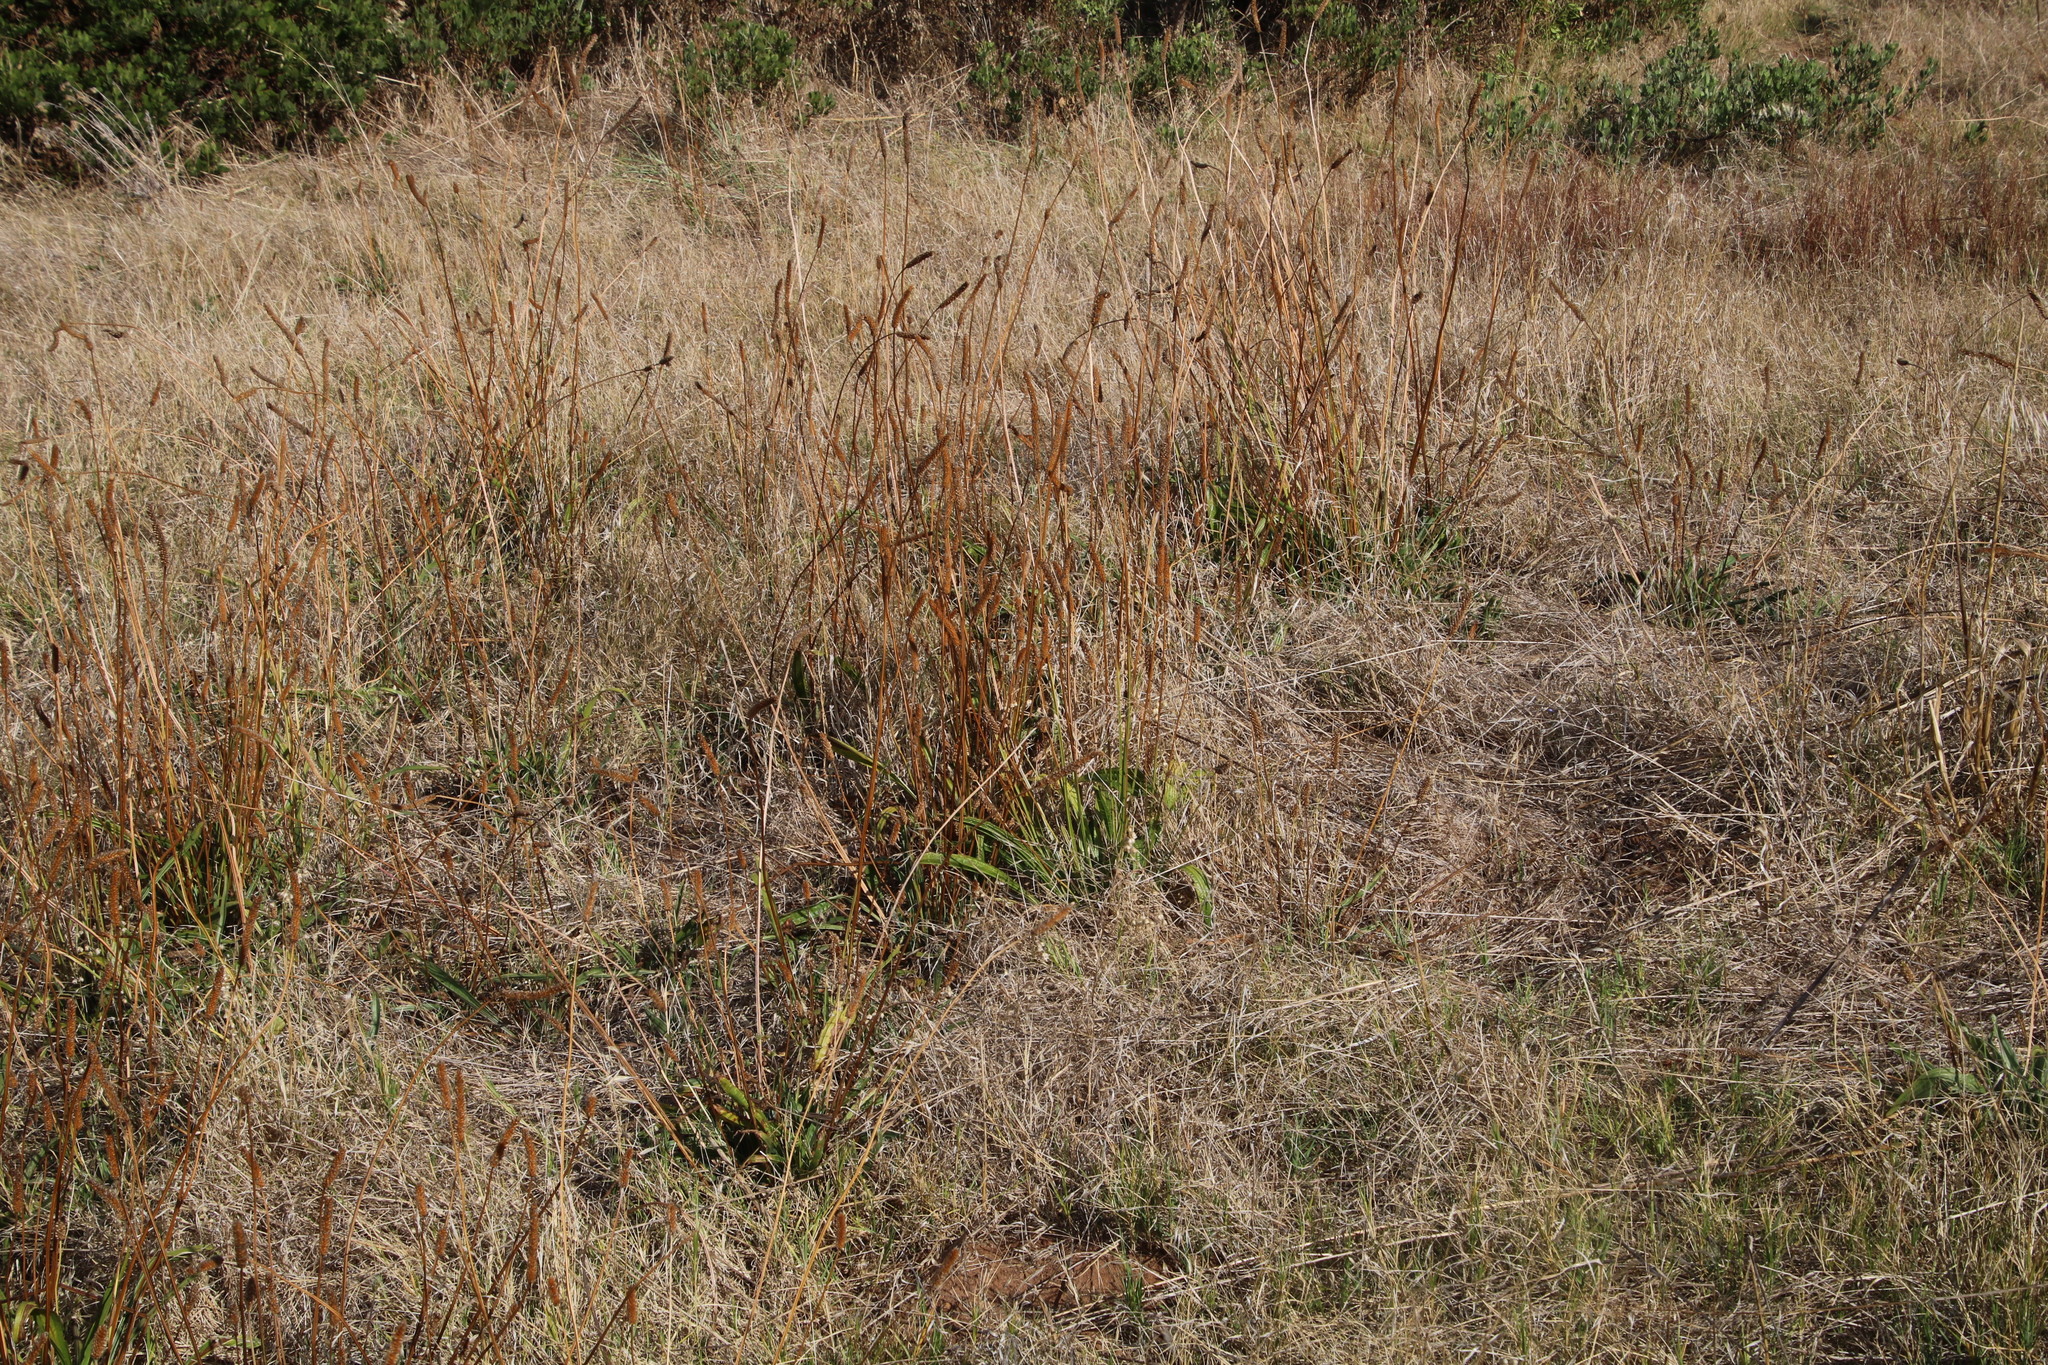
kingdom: Plantae
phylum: Tracheophyta
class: Magnoliopsida
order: Lamiales
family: Plantaginaceae
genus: Plantago
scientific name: Plantago lanceolata
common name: Ribwort plantain
